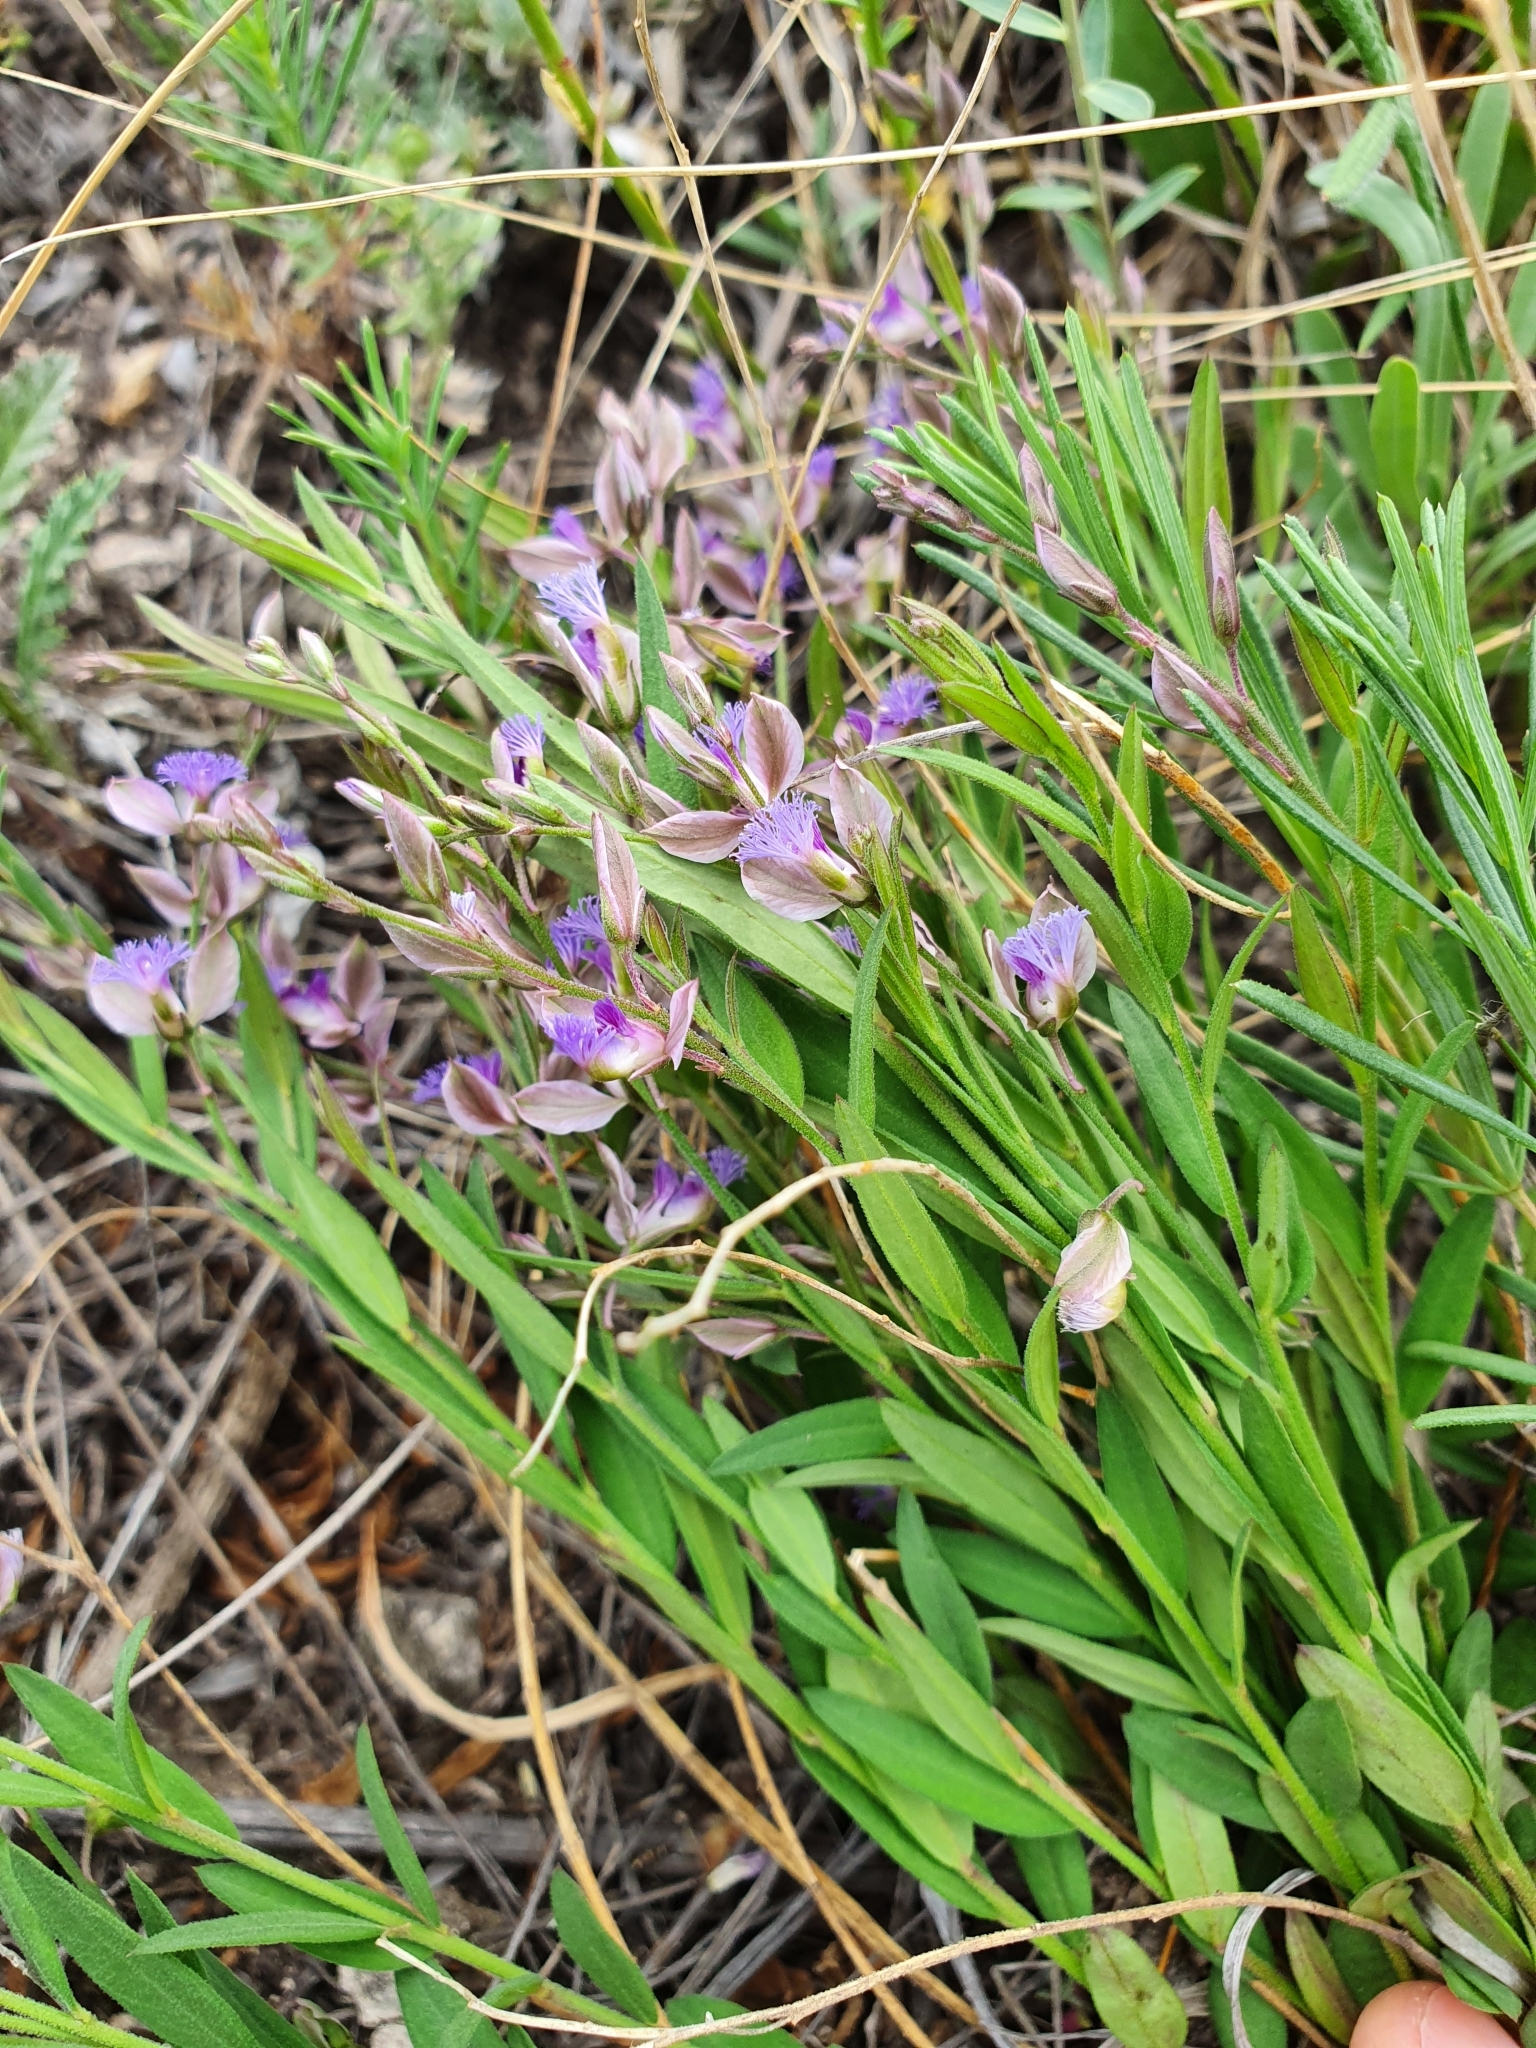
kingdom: Plantae
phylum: Tracheophyta
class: Magnoliopsida
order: Fabales
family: Polygalaceae
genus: Polygala
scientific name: Polygala sibirica
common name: Siberian polygala
